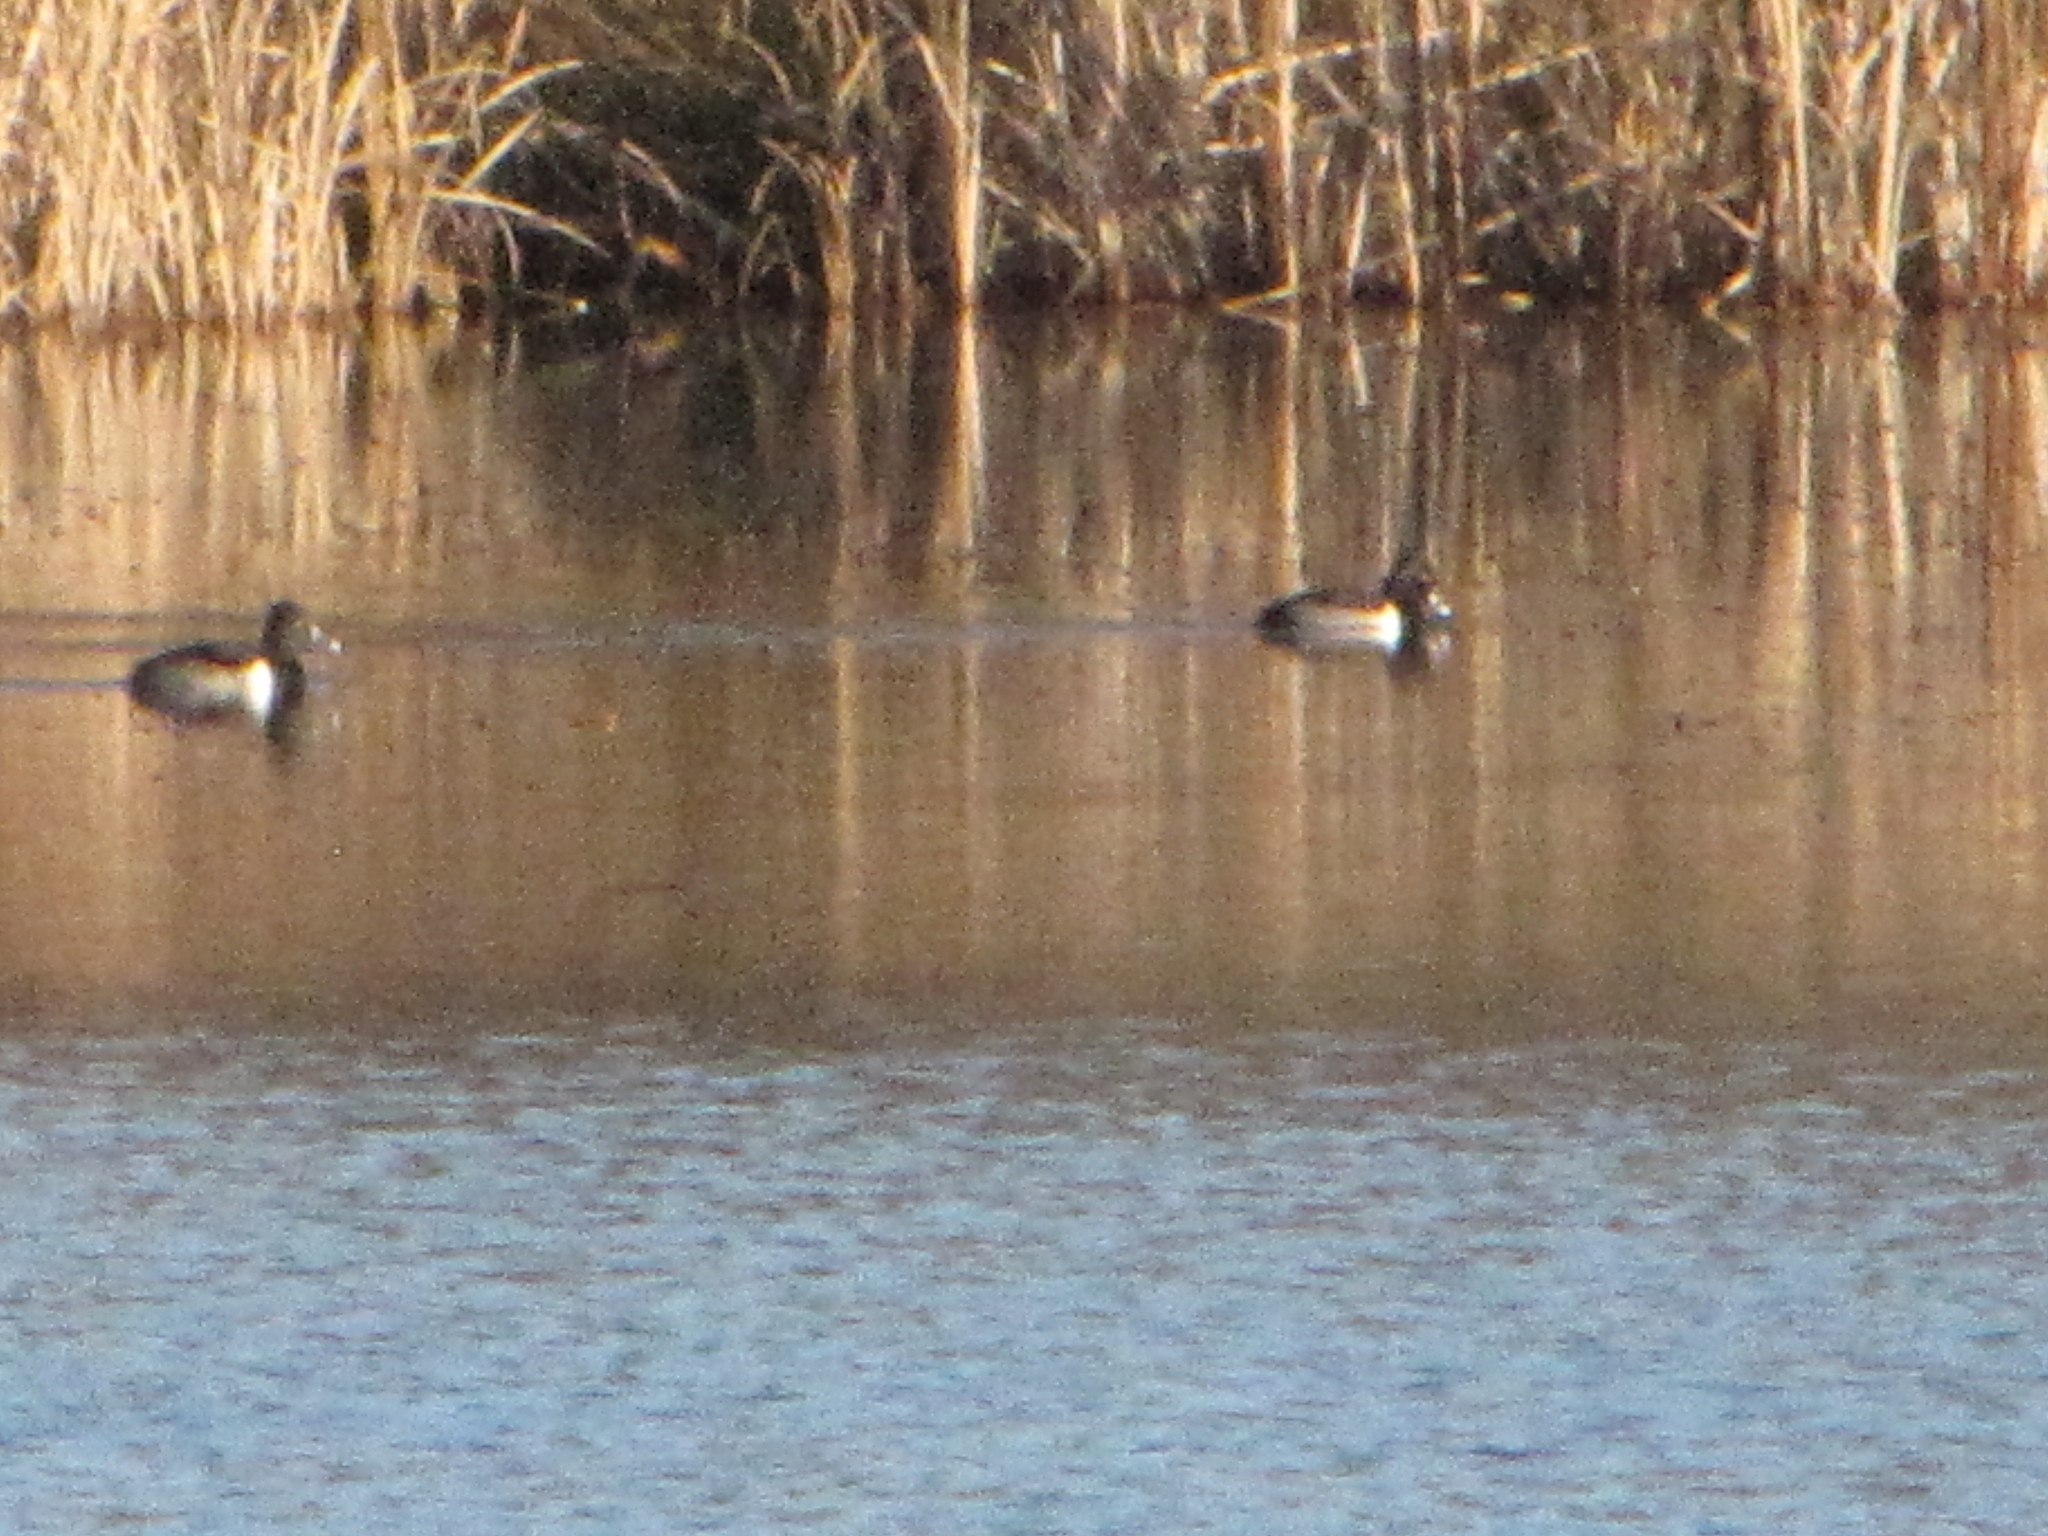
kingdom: Animalia
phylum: Chordata
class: Aves
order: Anseriformes
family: Anatidae
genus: Aythya
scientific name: Aythya collaris
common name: Ring-necked duck
